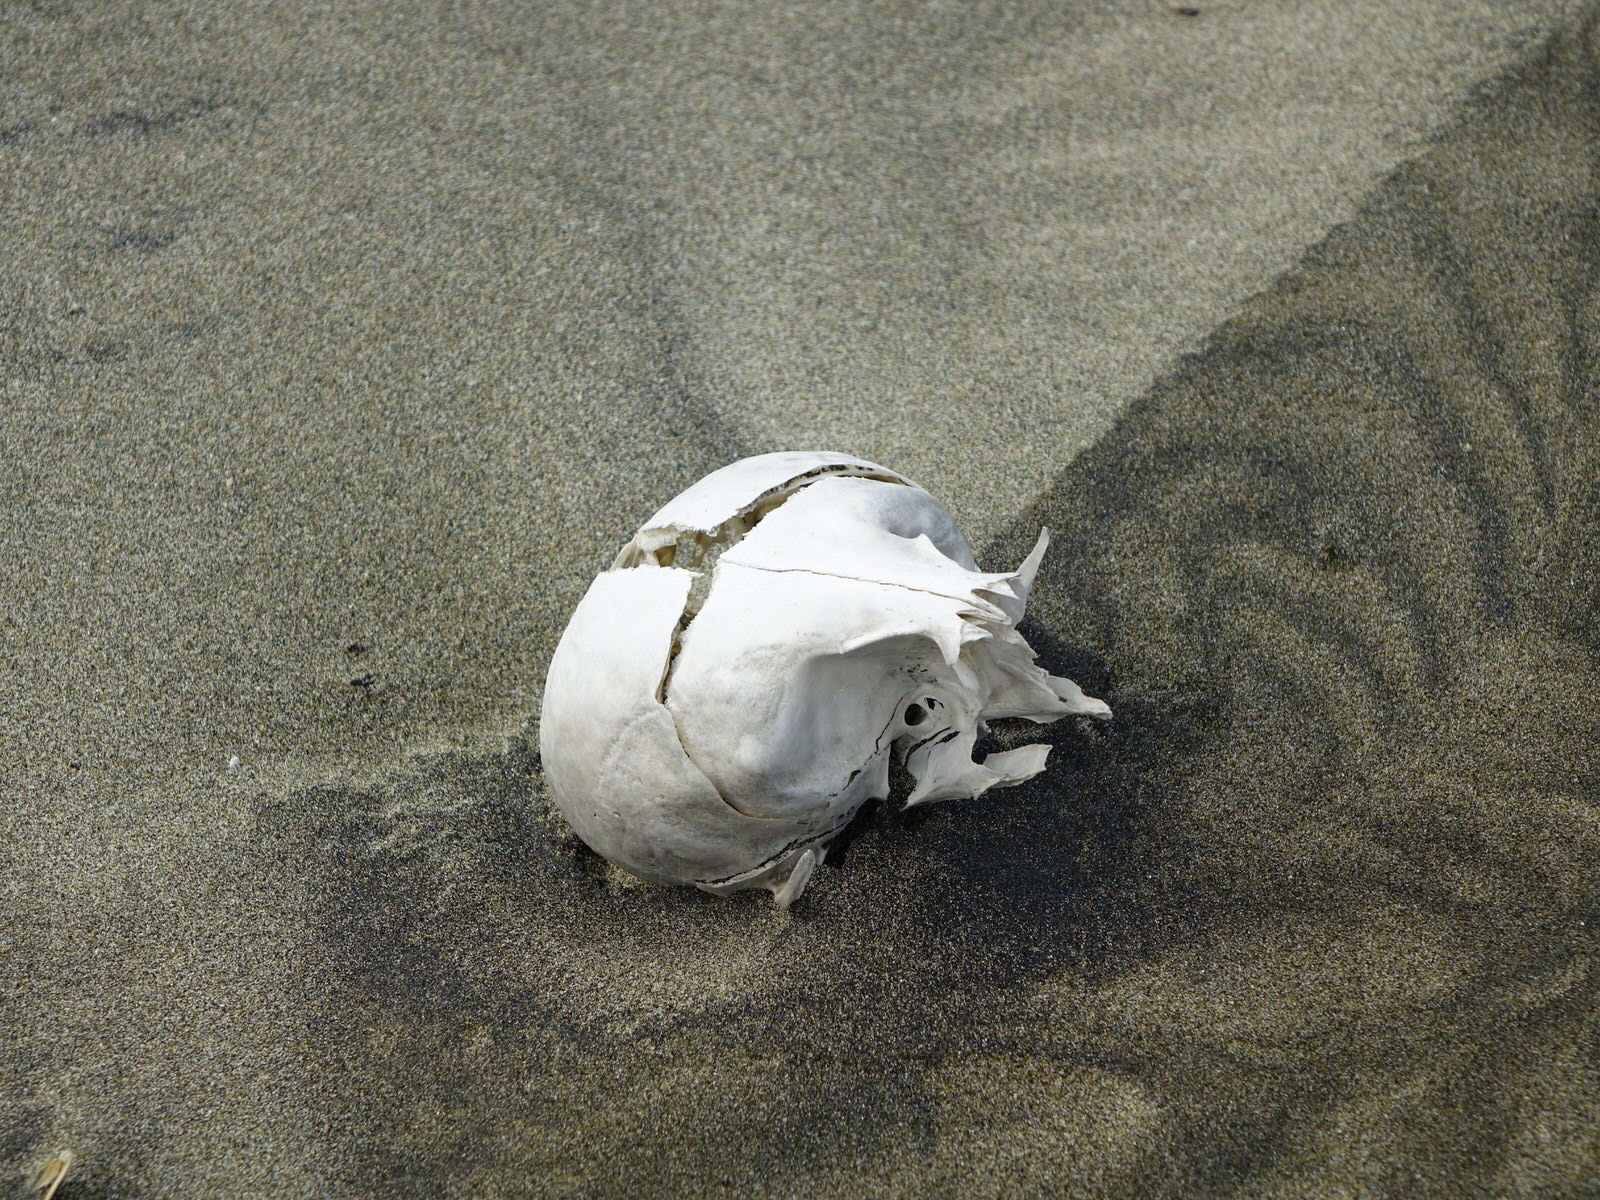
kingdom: Animalia
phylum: Chordata
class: Mammalia
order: Carnivora
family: Otariidae
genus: Arctocephalus
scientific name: Arctocephalus forsteri
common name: New zealand fur seal
